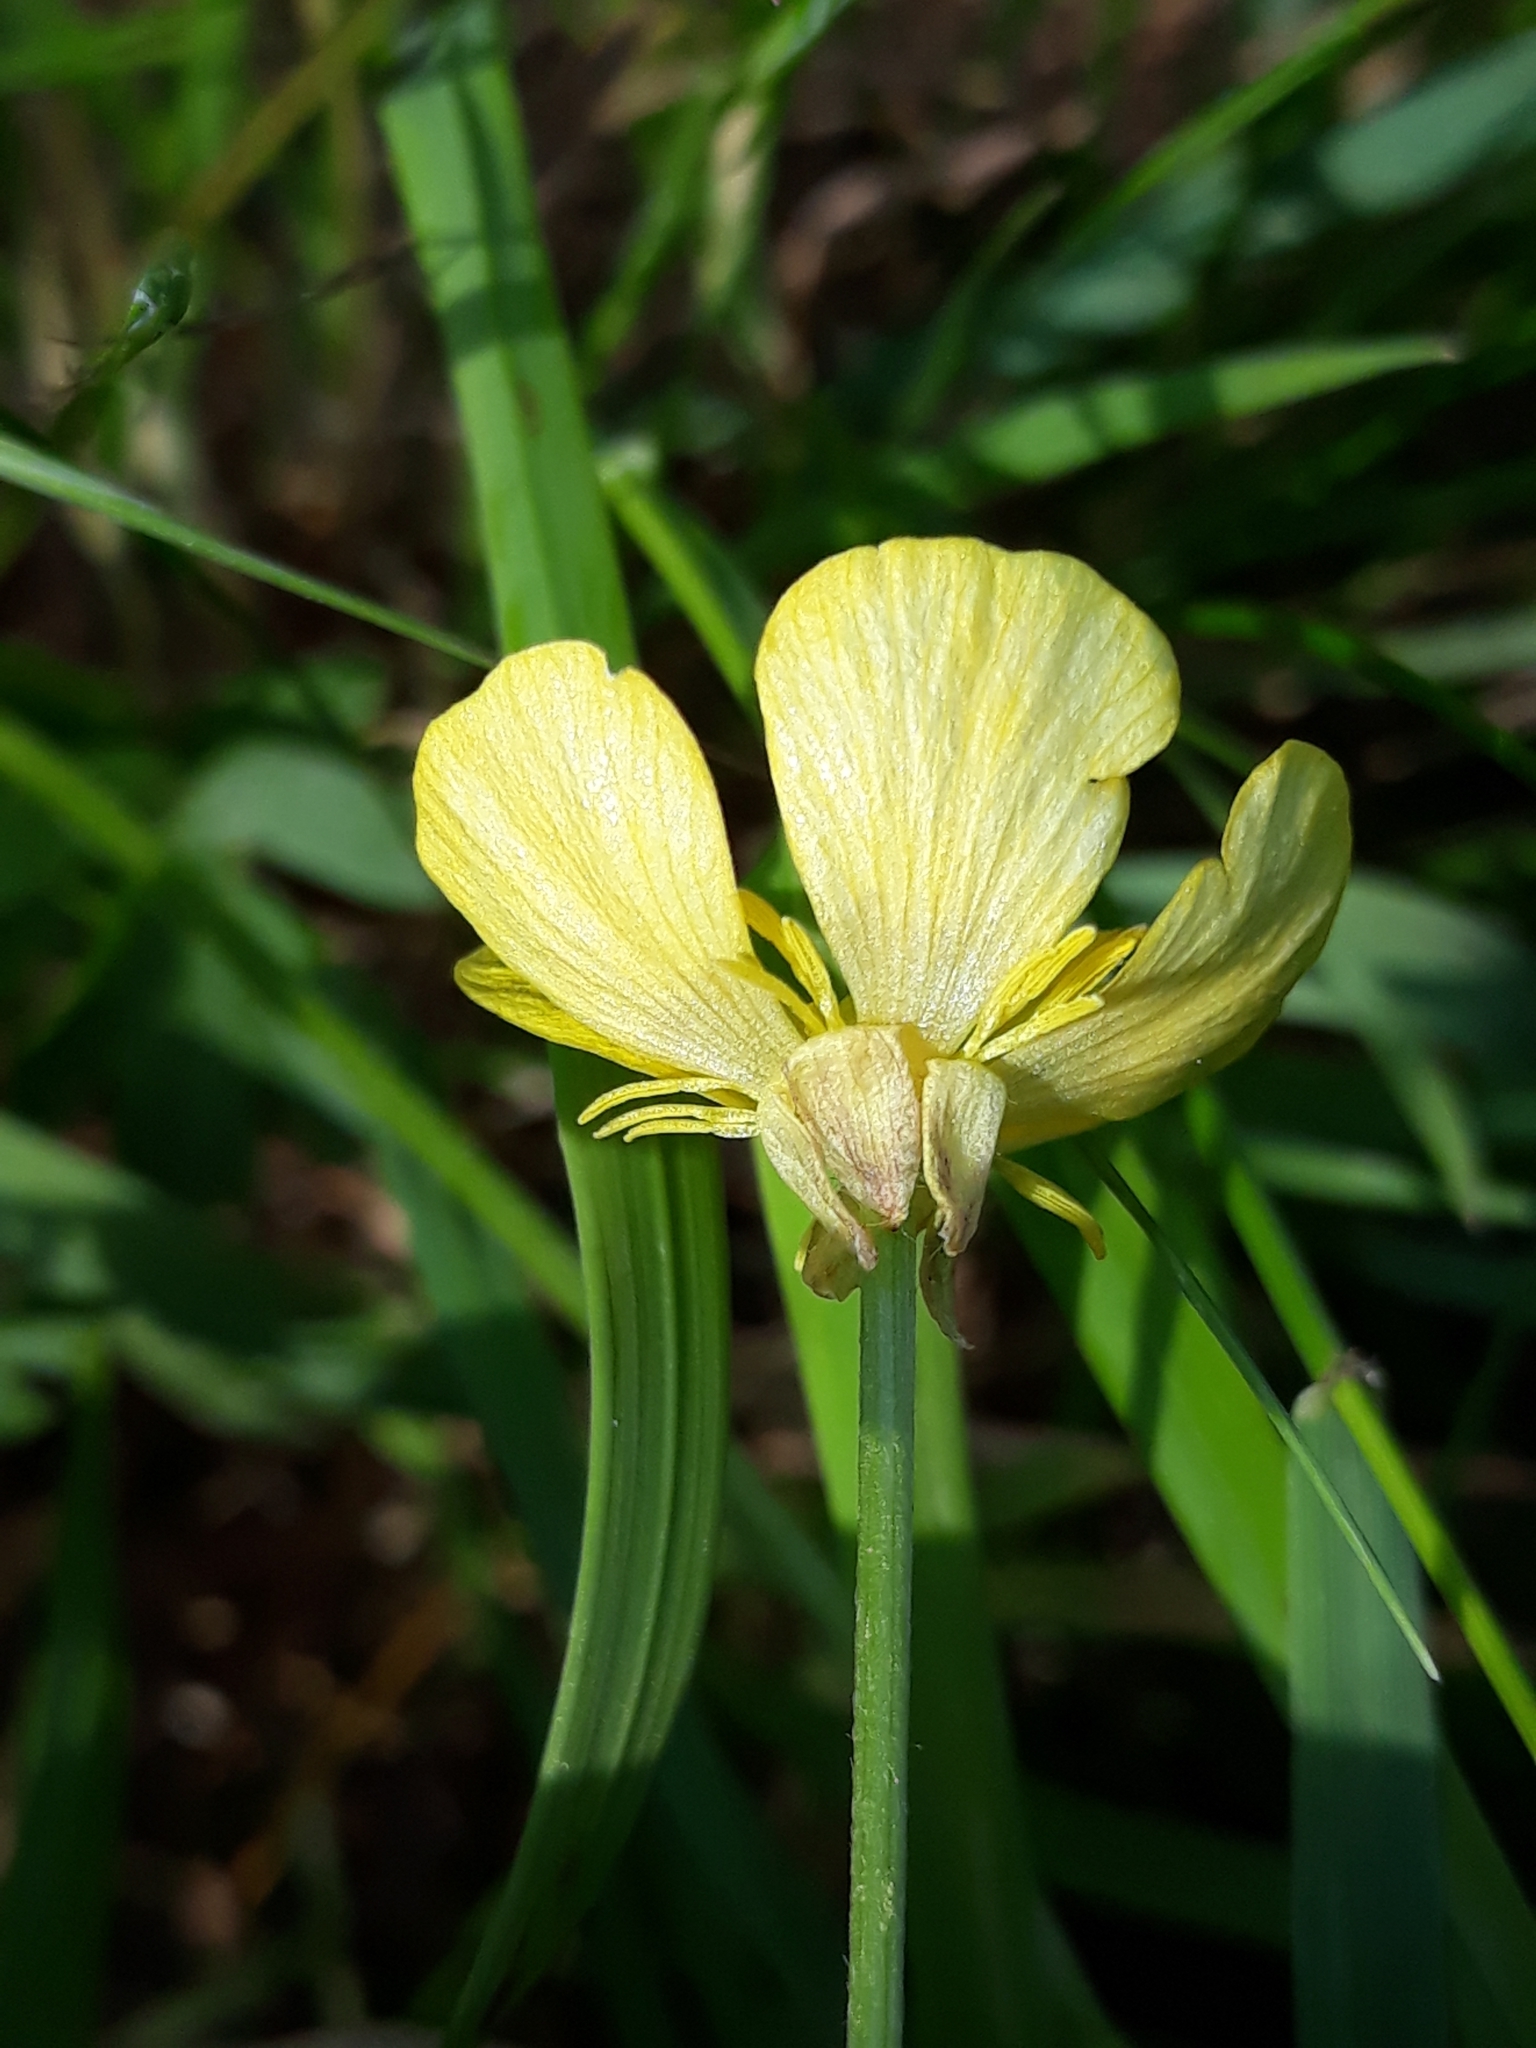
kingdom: Plantae
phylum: Tracheophyta
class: Magnoliopsida
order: Ranunculales
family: Ranunculaceae
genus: Ranunculus
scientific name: Ranunculus bulbosus
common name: Bulbous buttercup
